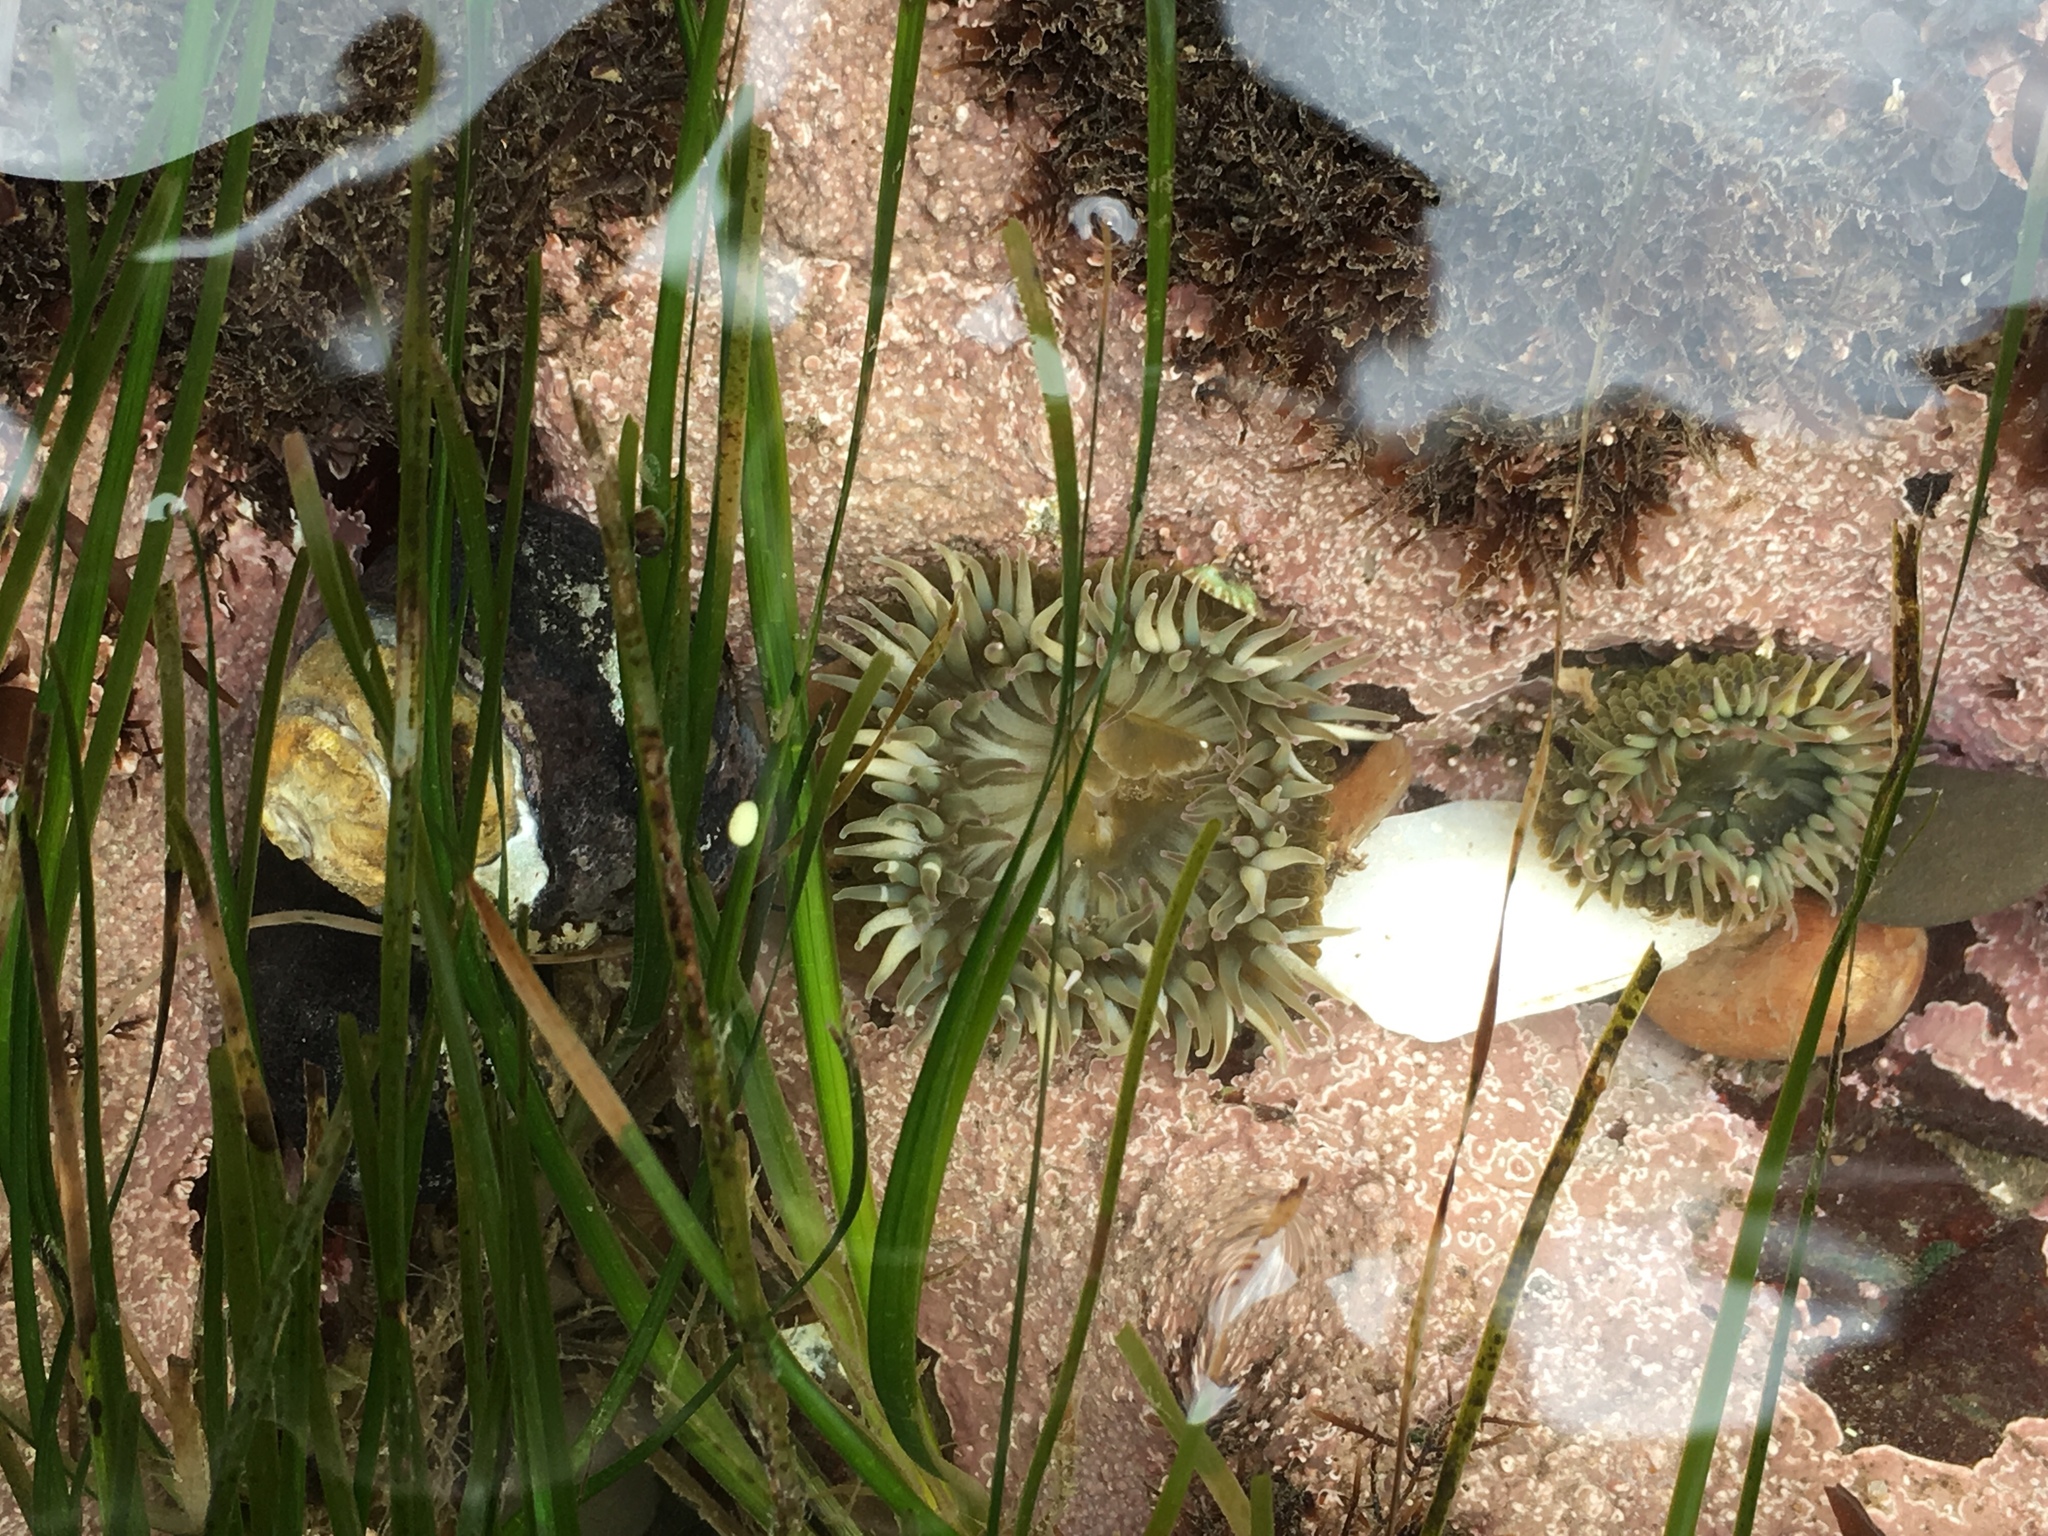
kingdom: Animalia
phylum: Cnidaria
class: Anthozoa
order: Actiniaria
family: Actiniidae
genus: Anthopleura
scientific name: Anthopleura sola
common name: Sun anemone
